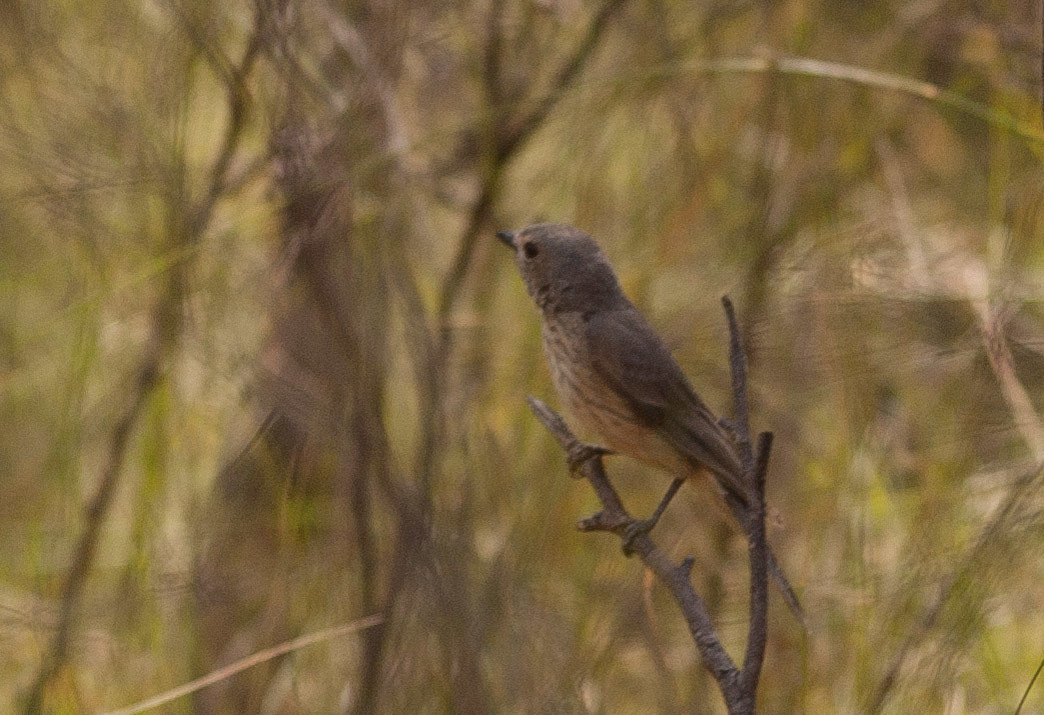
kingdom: Animalia
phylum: Chordata
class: Aves
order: Passeriformes
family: Pachycephalidae
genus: Pachycephala
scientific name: Pachycephala rufiventris
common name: Rufous whistler
